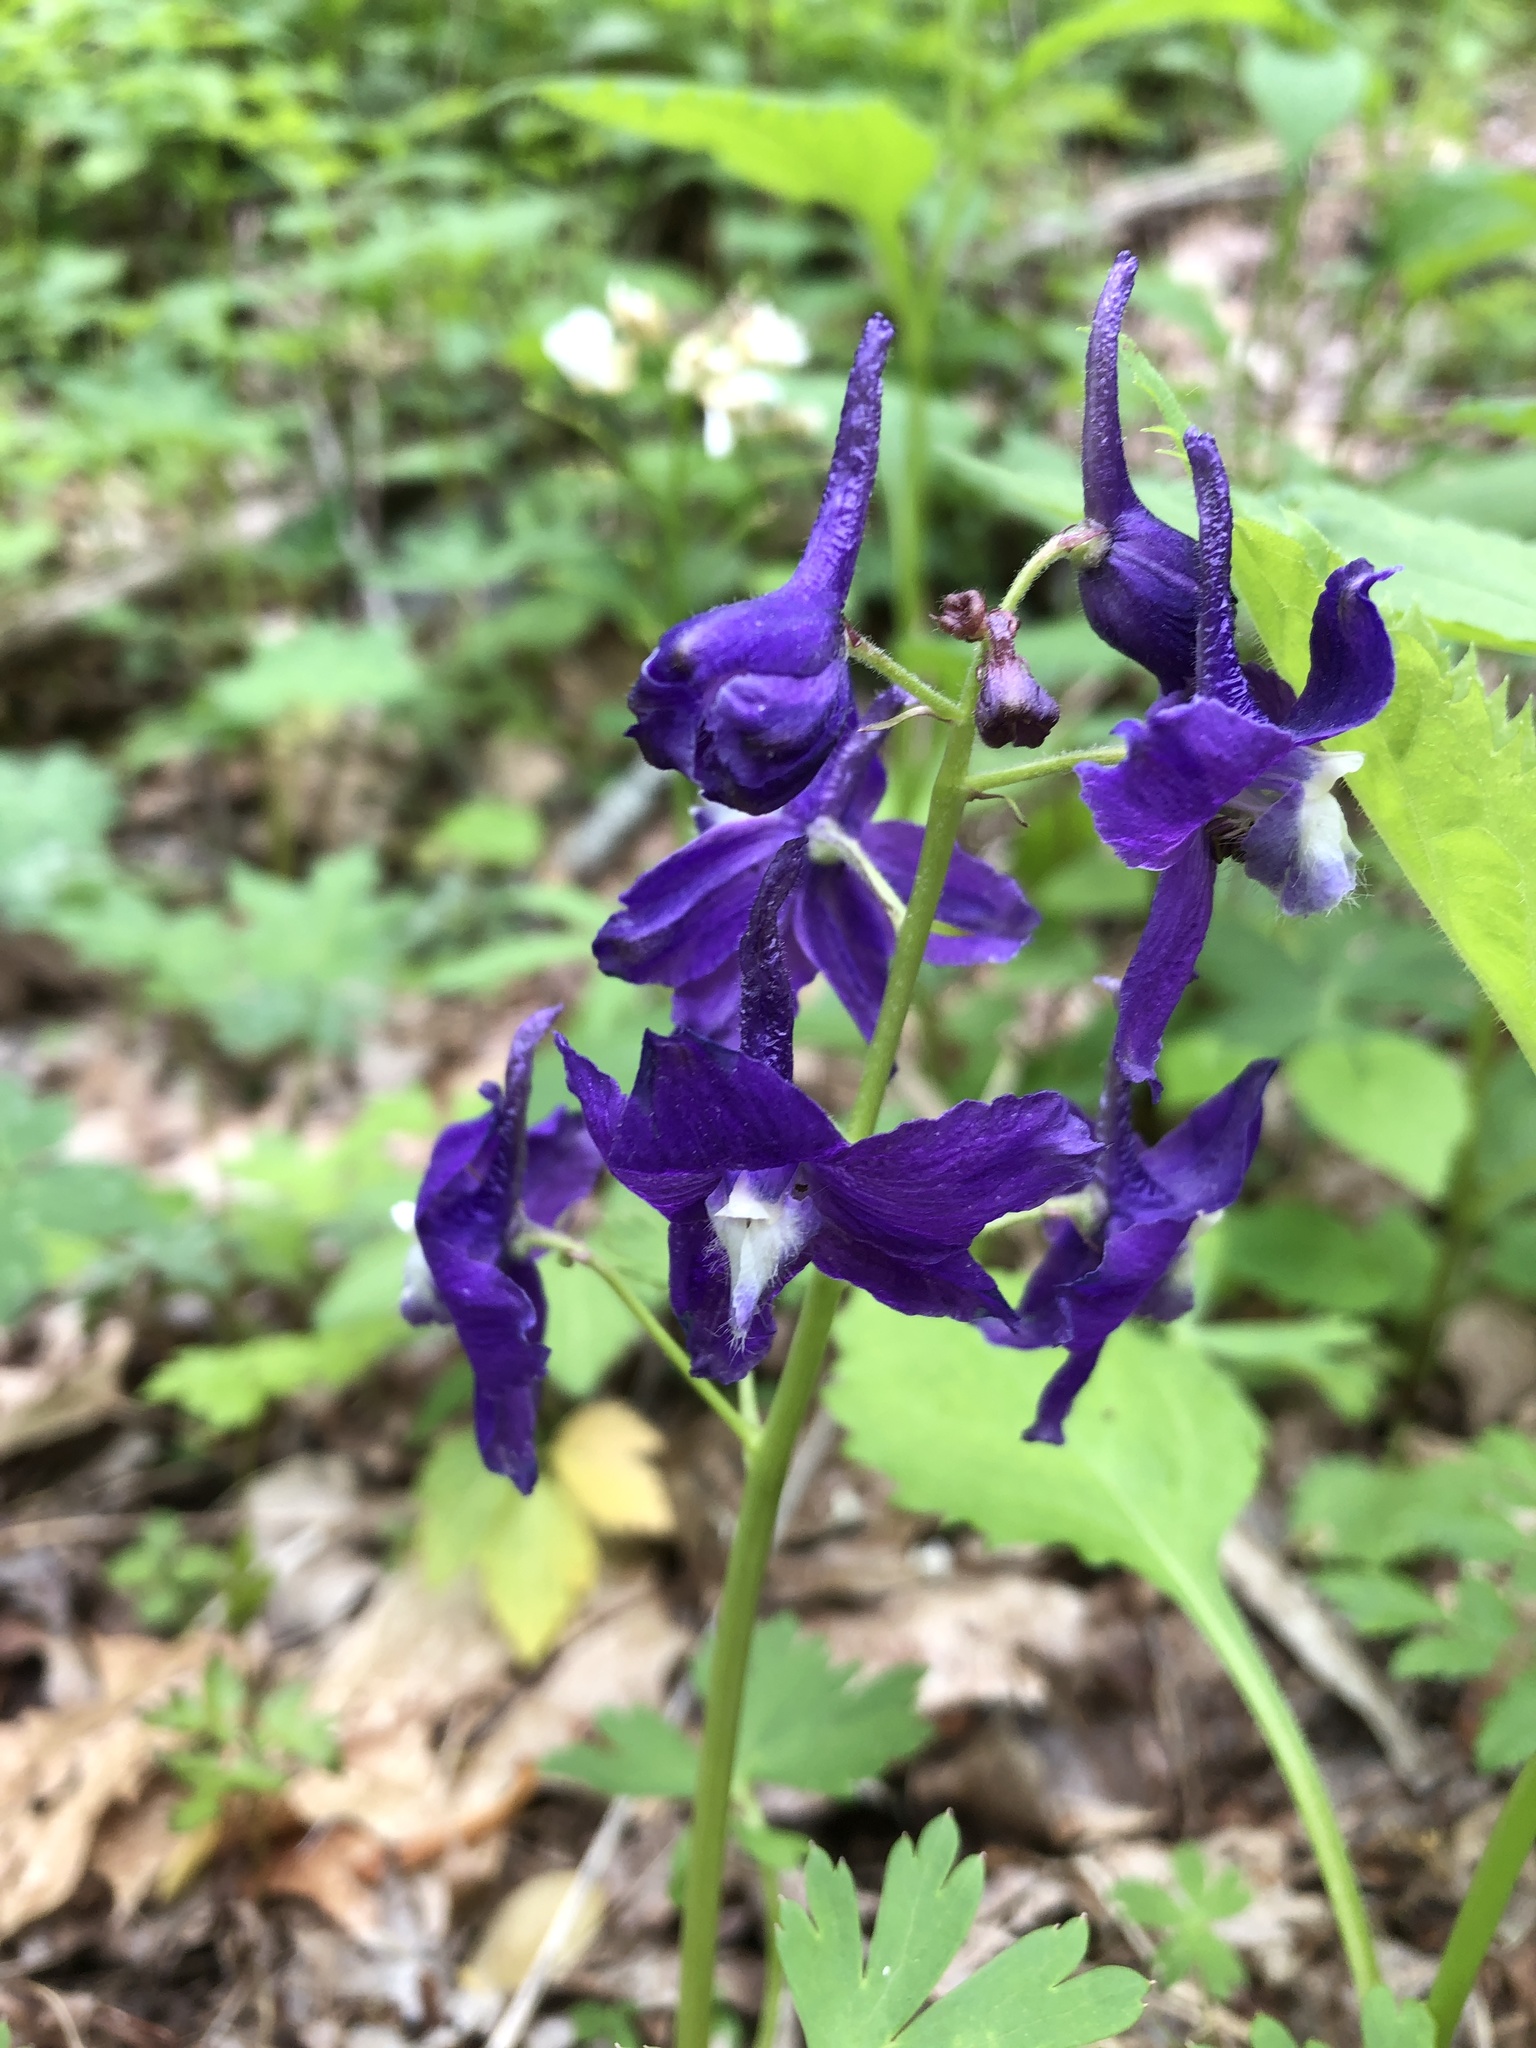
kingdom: Plantae
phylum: Tracheophyta
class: Magnoliopsida
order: Ranunculales
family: Ranunculaceae
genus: Delphinium
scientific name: Delphinium tricorne
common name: Dwarf larkspur
